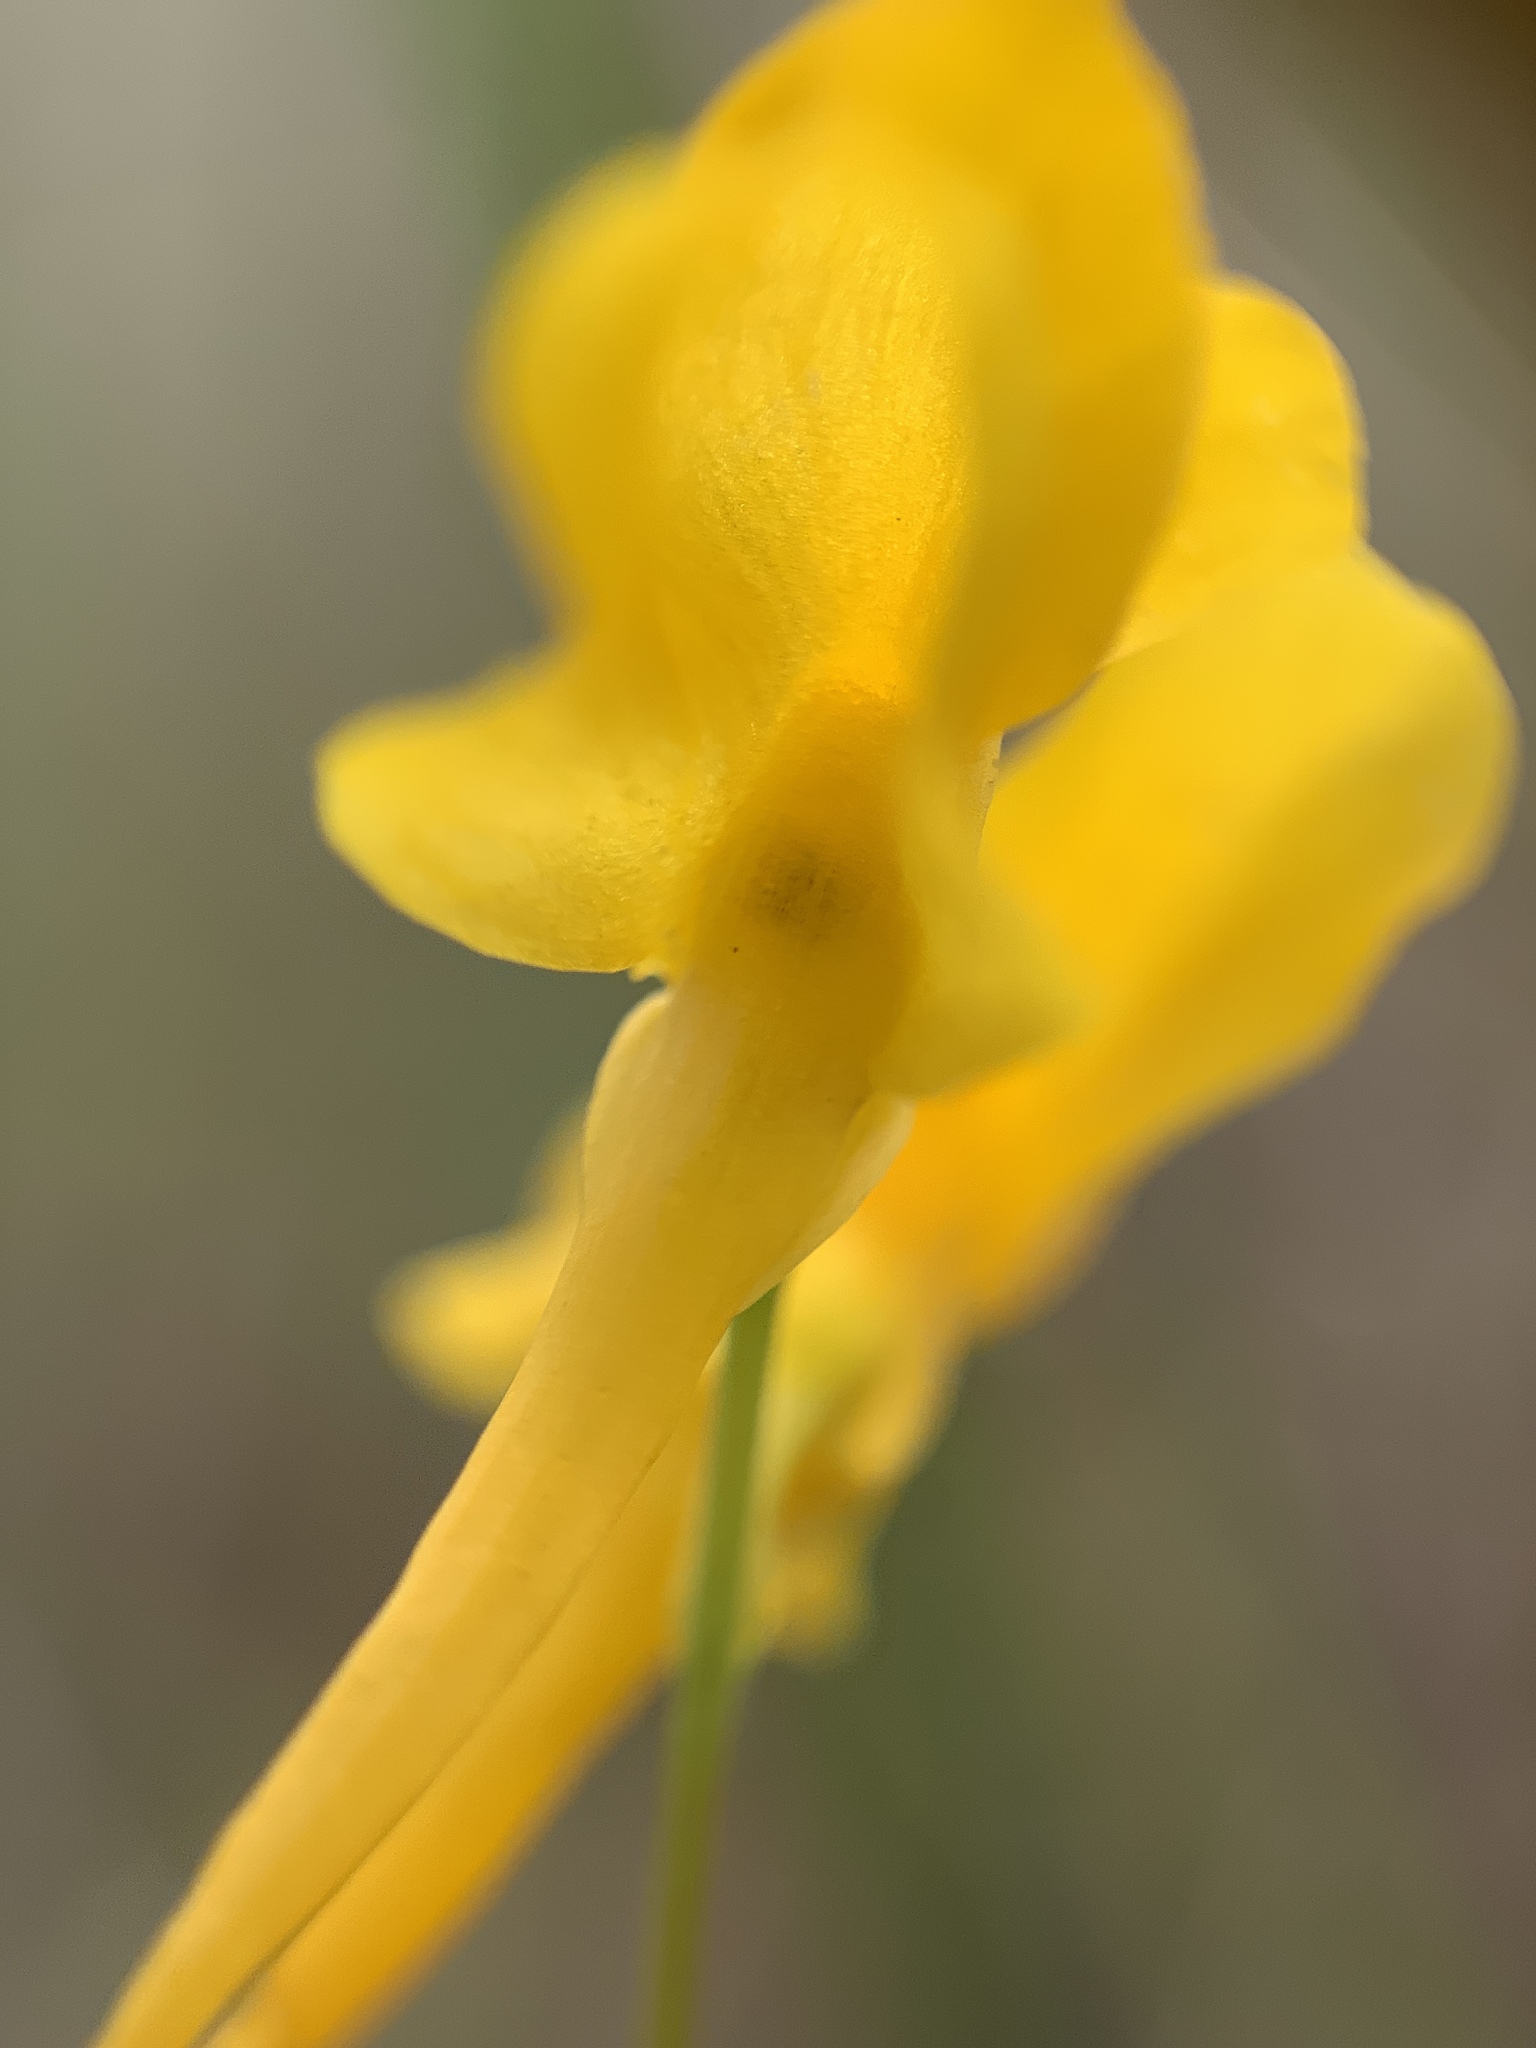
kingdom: Plantae
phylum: Tracheophyta
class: Magnoliopsida
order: Lamiales
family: Lentibulariaceae
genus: Utricularia
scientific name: Utricularia cornuta
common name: Horned bladderwort
